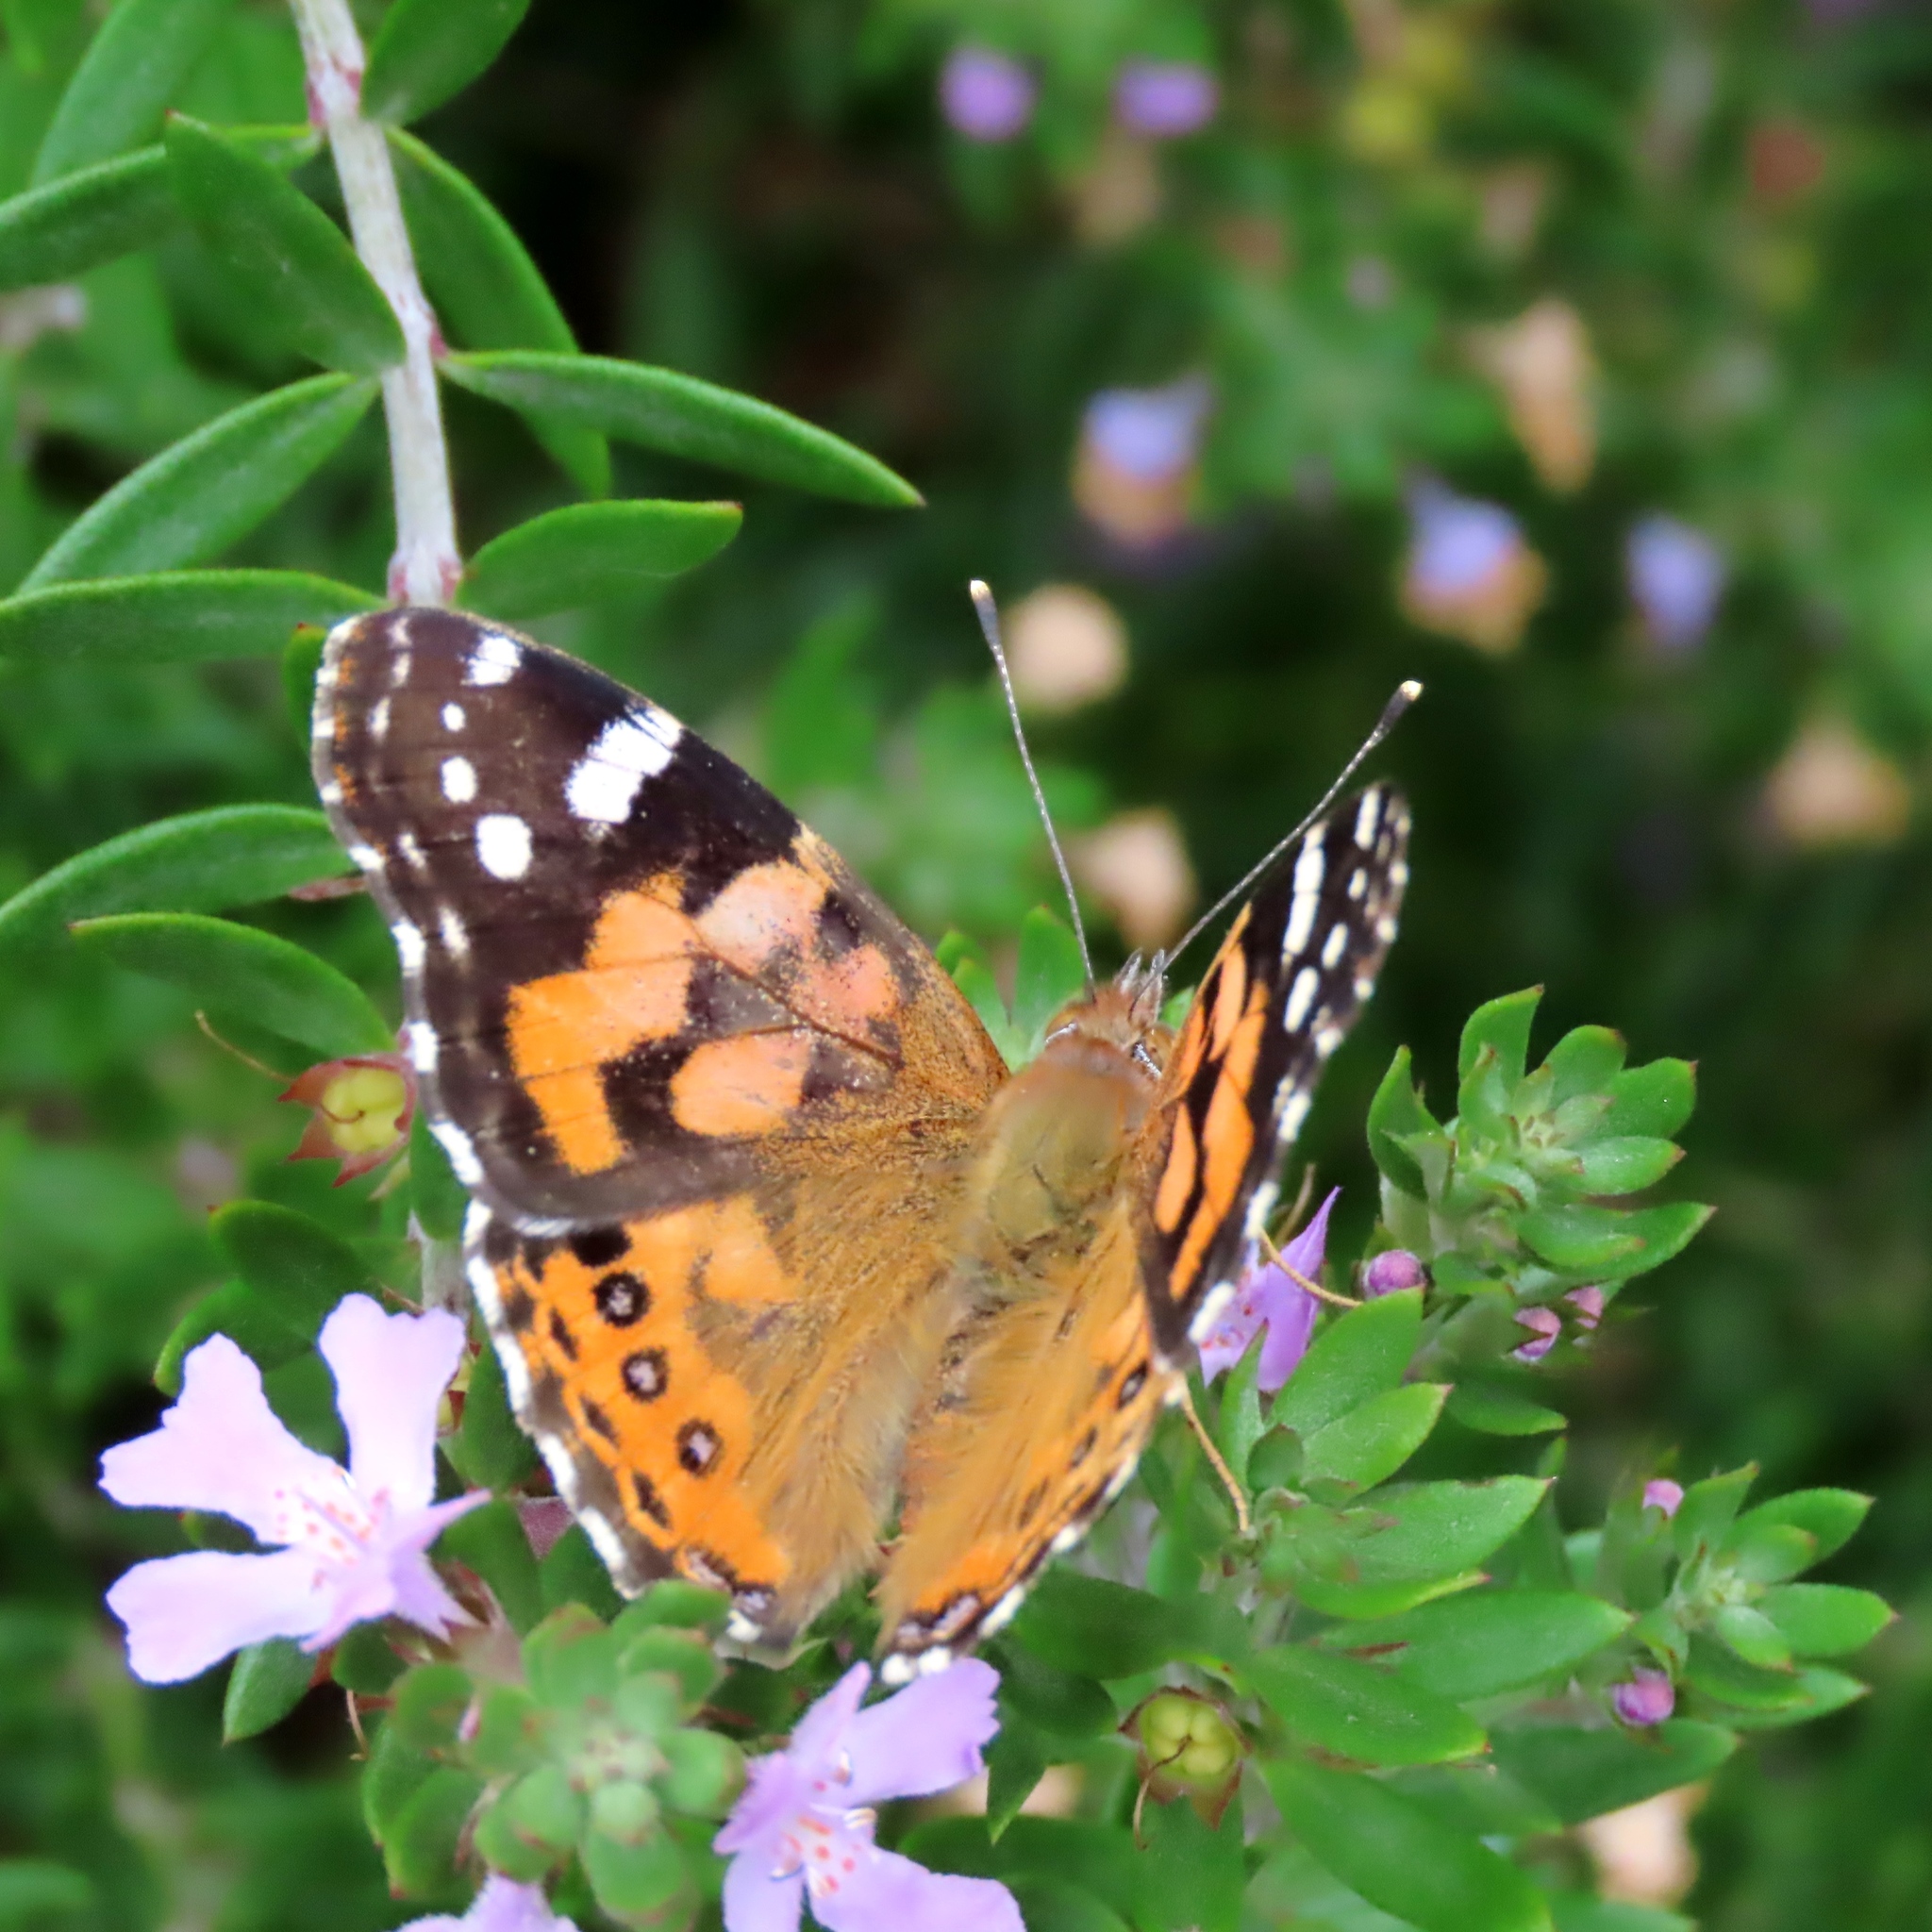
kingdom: Animalia
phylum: Arthropoda
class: Insecta
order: Lepidoptera
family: Nymphalidae
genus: Vanessa
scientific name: Vanessa kershawi
